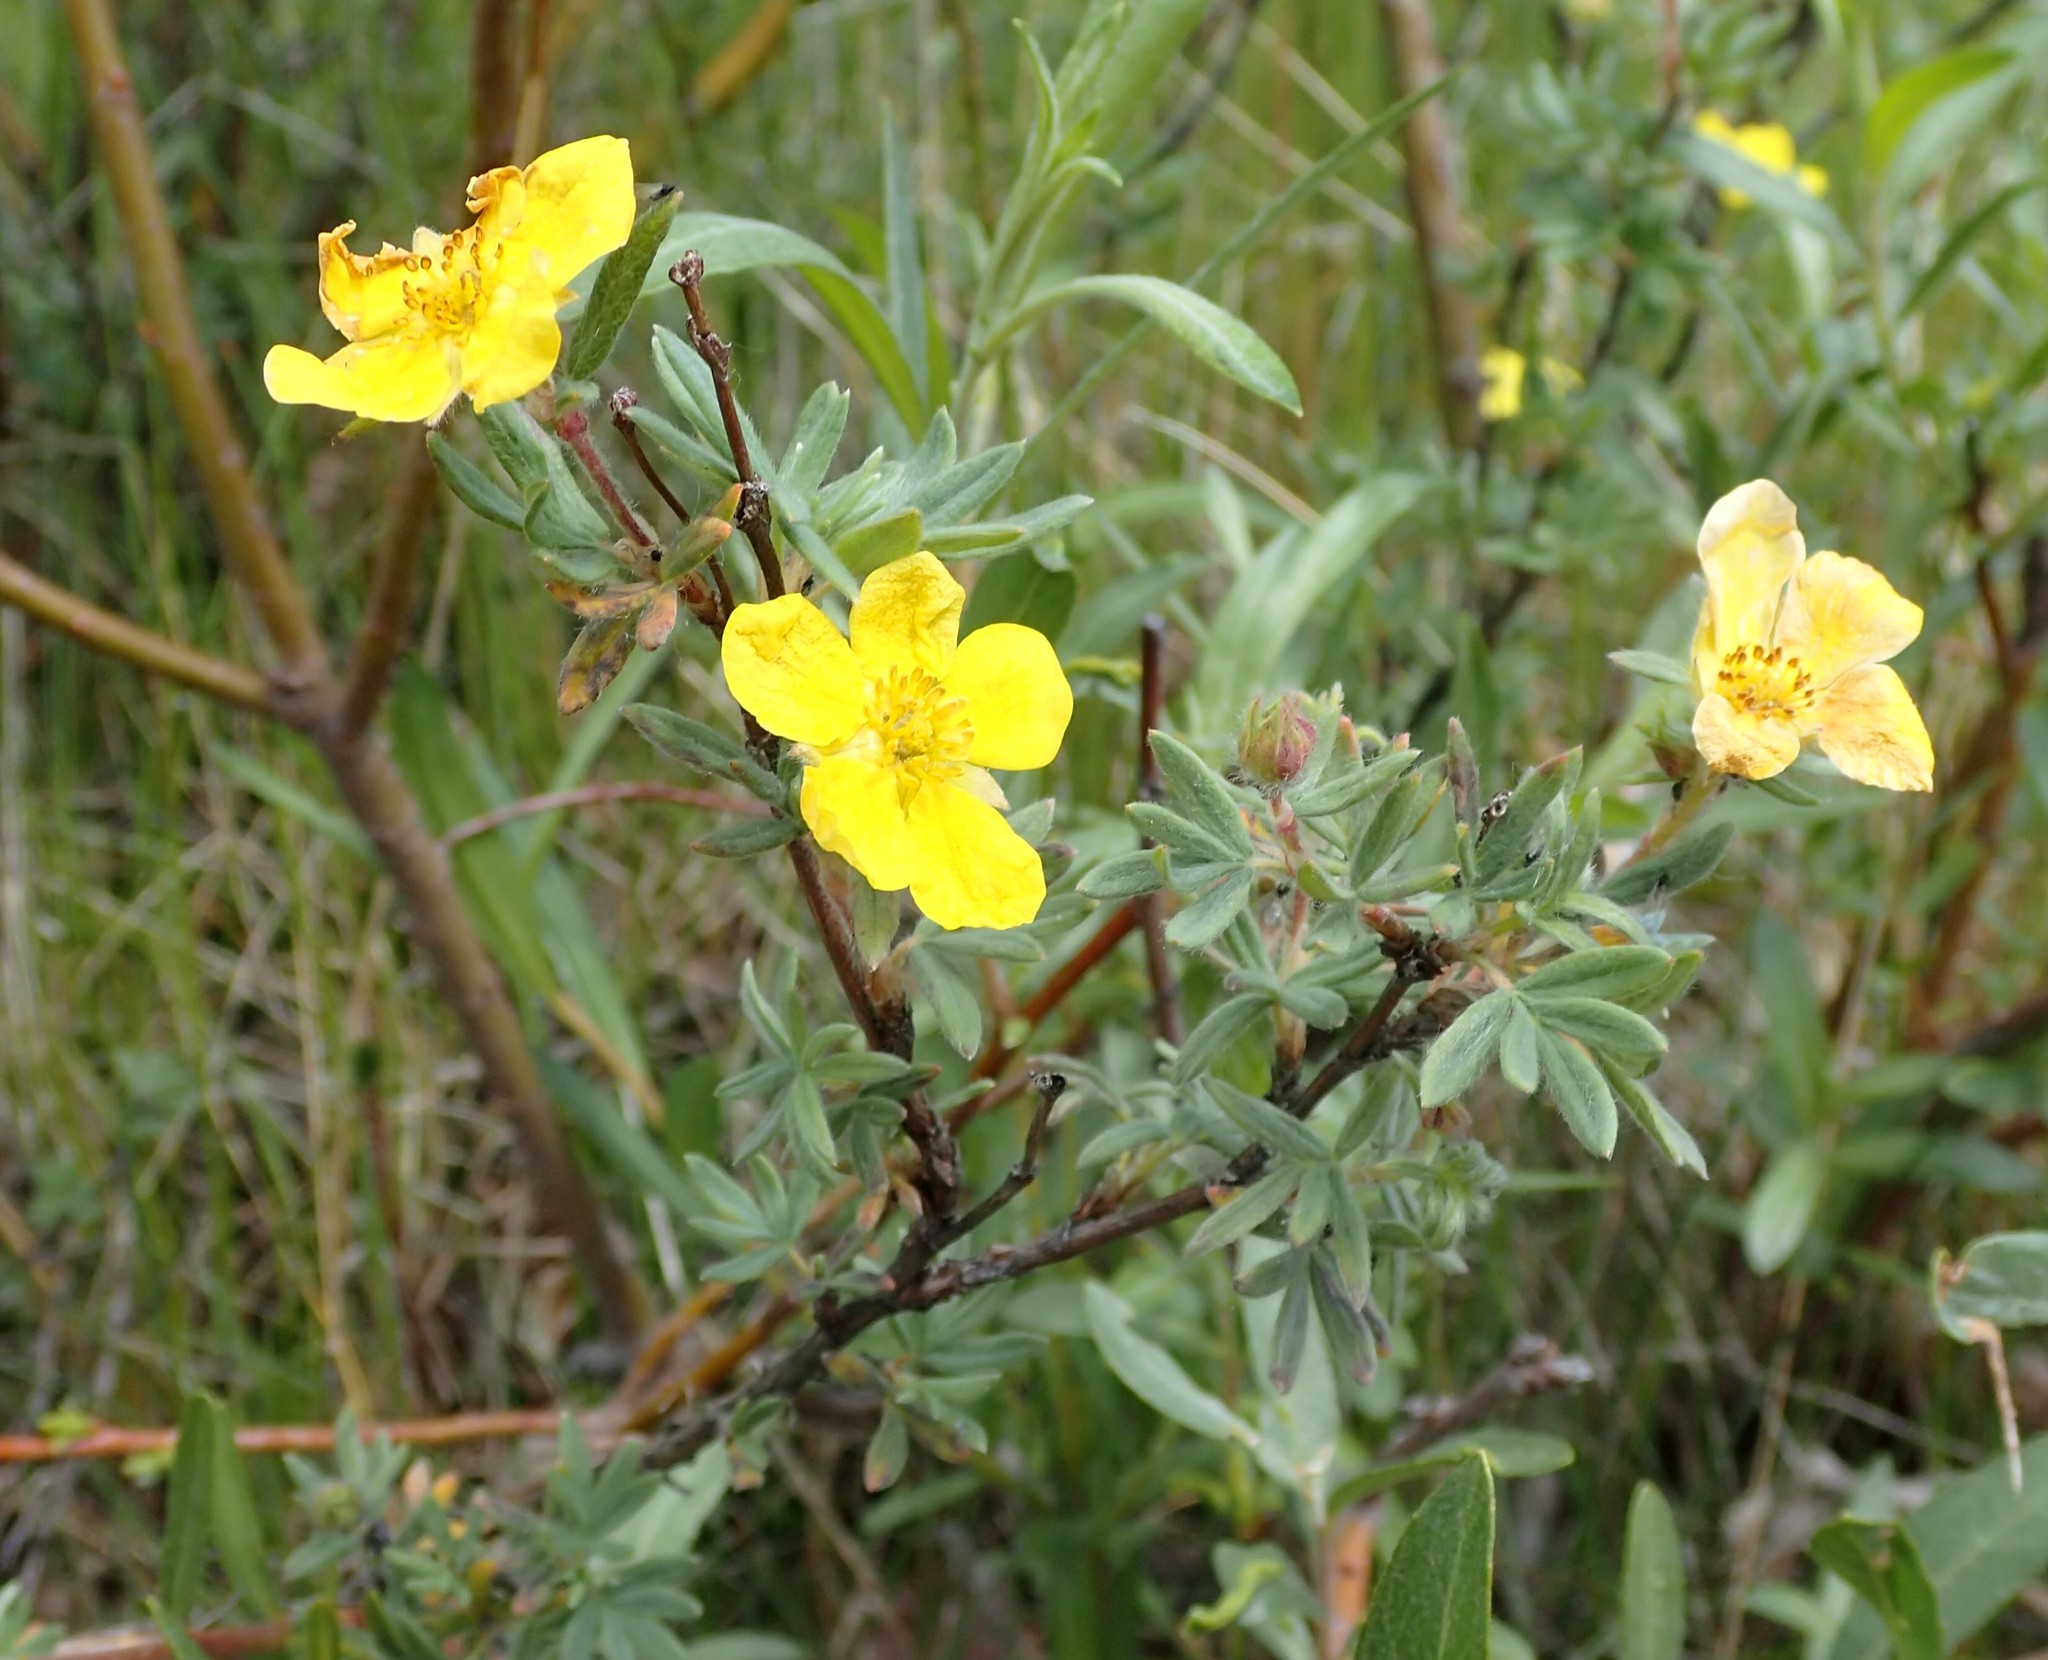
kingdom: Plantae
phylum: Tracheophyta
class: Magnoliopsida
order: Rosales
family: Rosaceae
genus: Dasiphora
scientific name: Dasiphora fruticosa
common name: Shrubby cinquefoil
